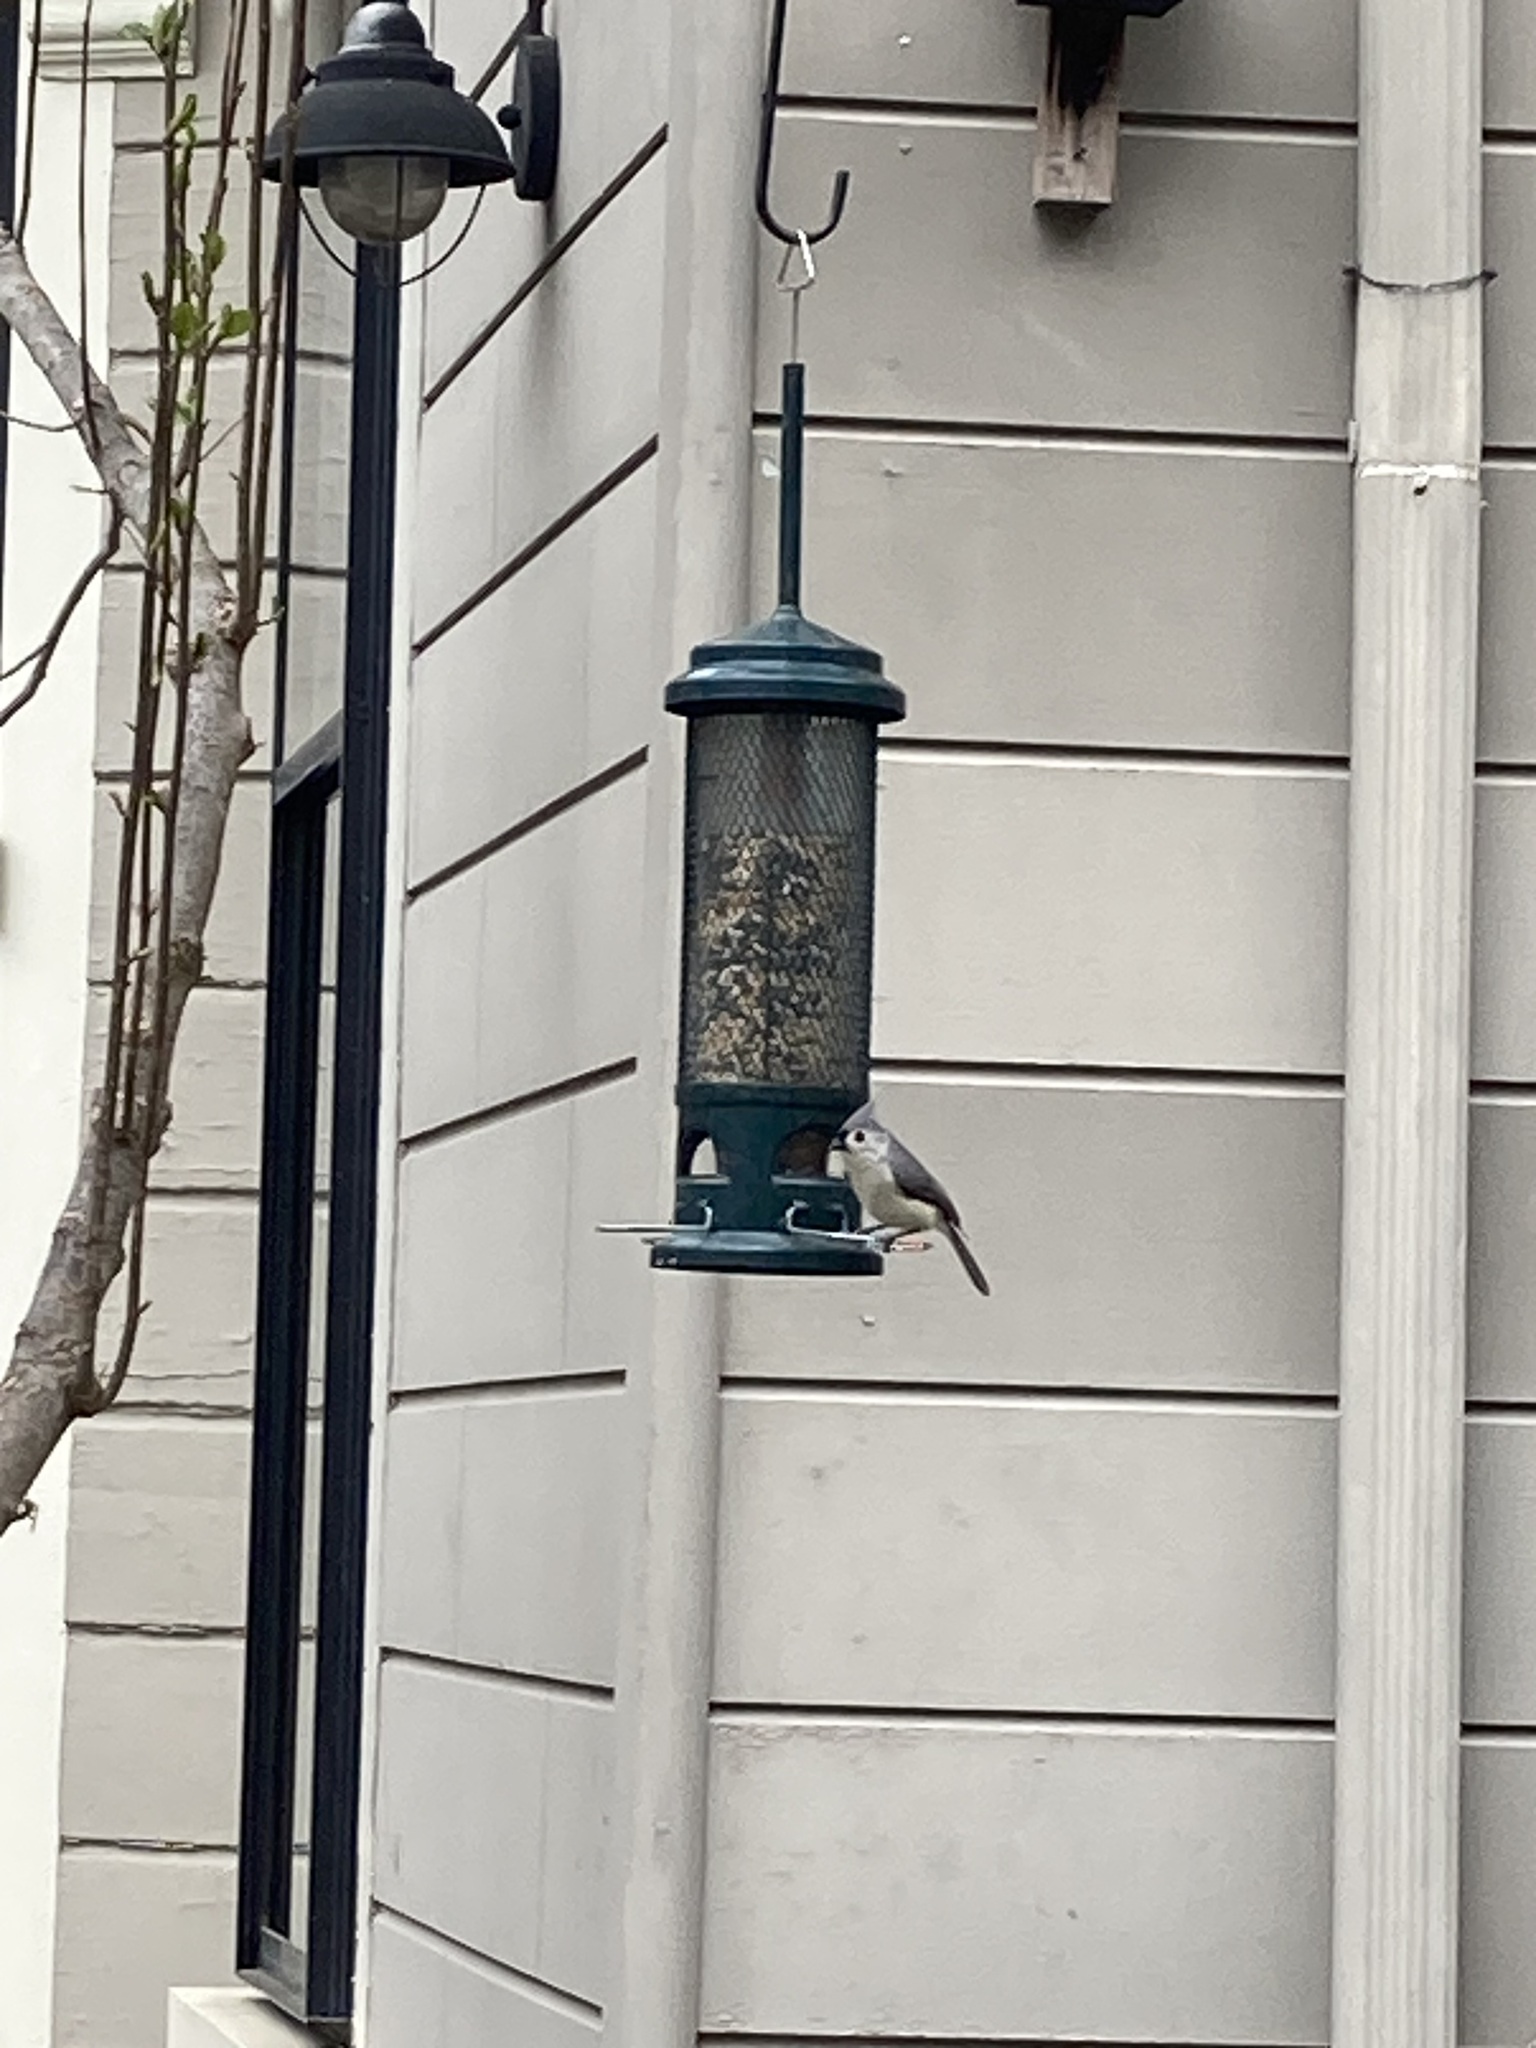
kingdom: Animalia
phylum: Chordata
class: Aves
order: Passeriformes
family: Paridae
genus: Baeolophus
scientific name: Baeolophus bicolor
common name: Tufted titmouse
